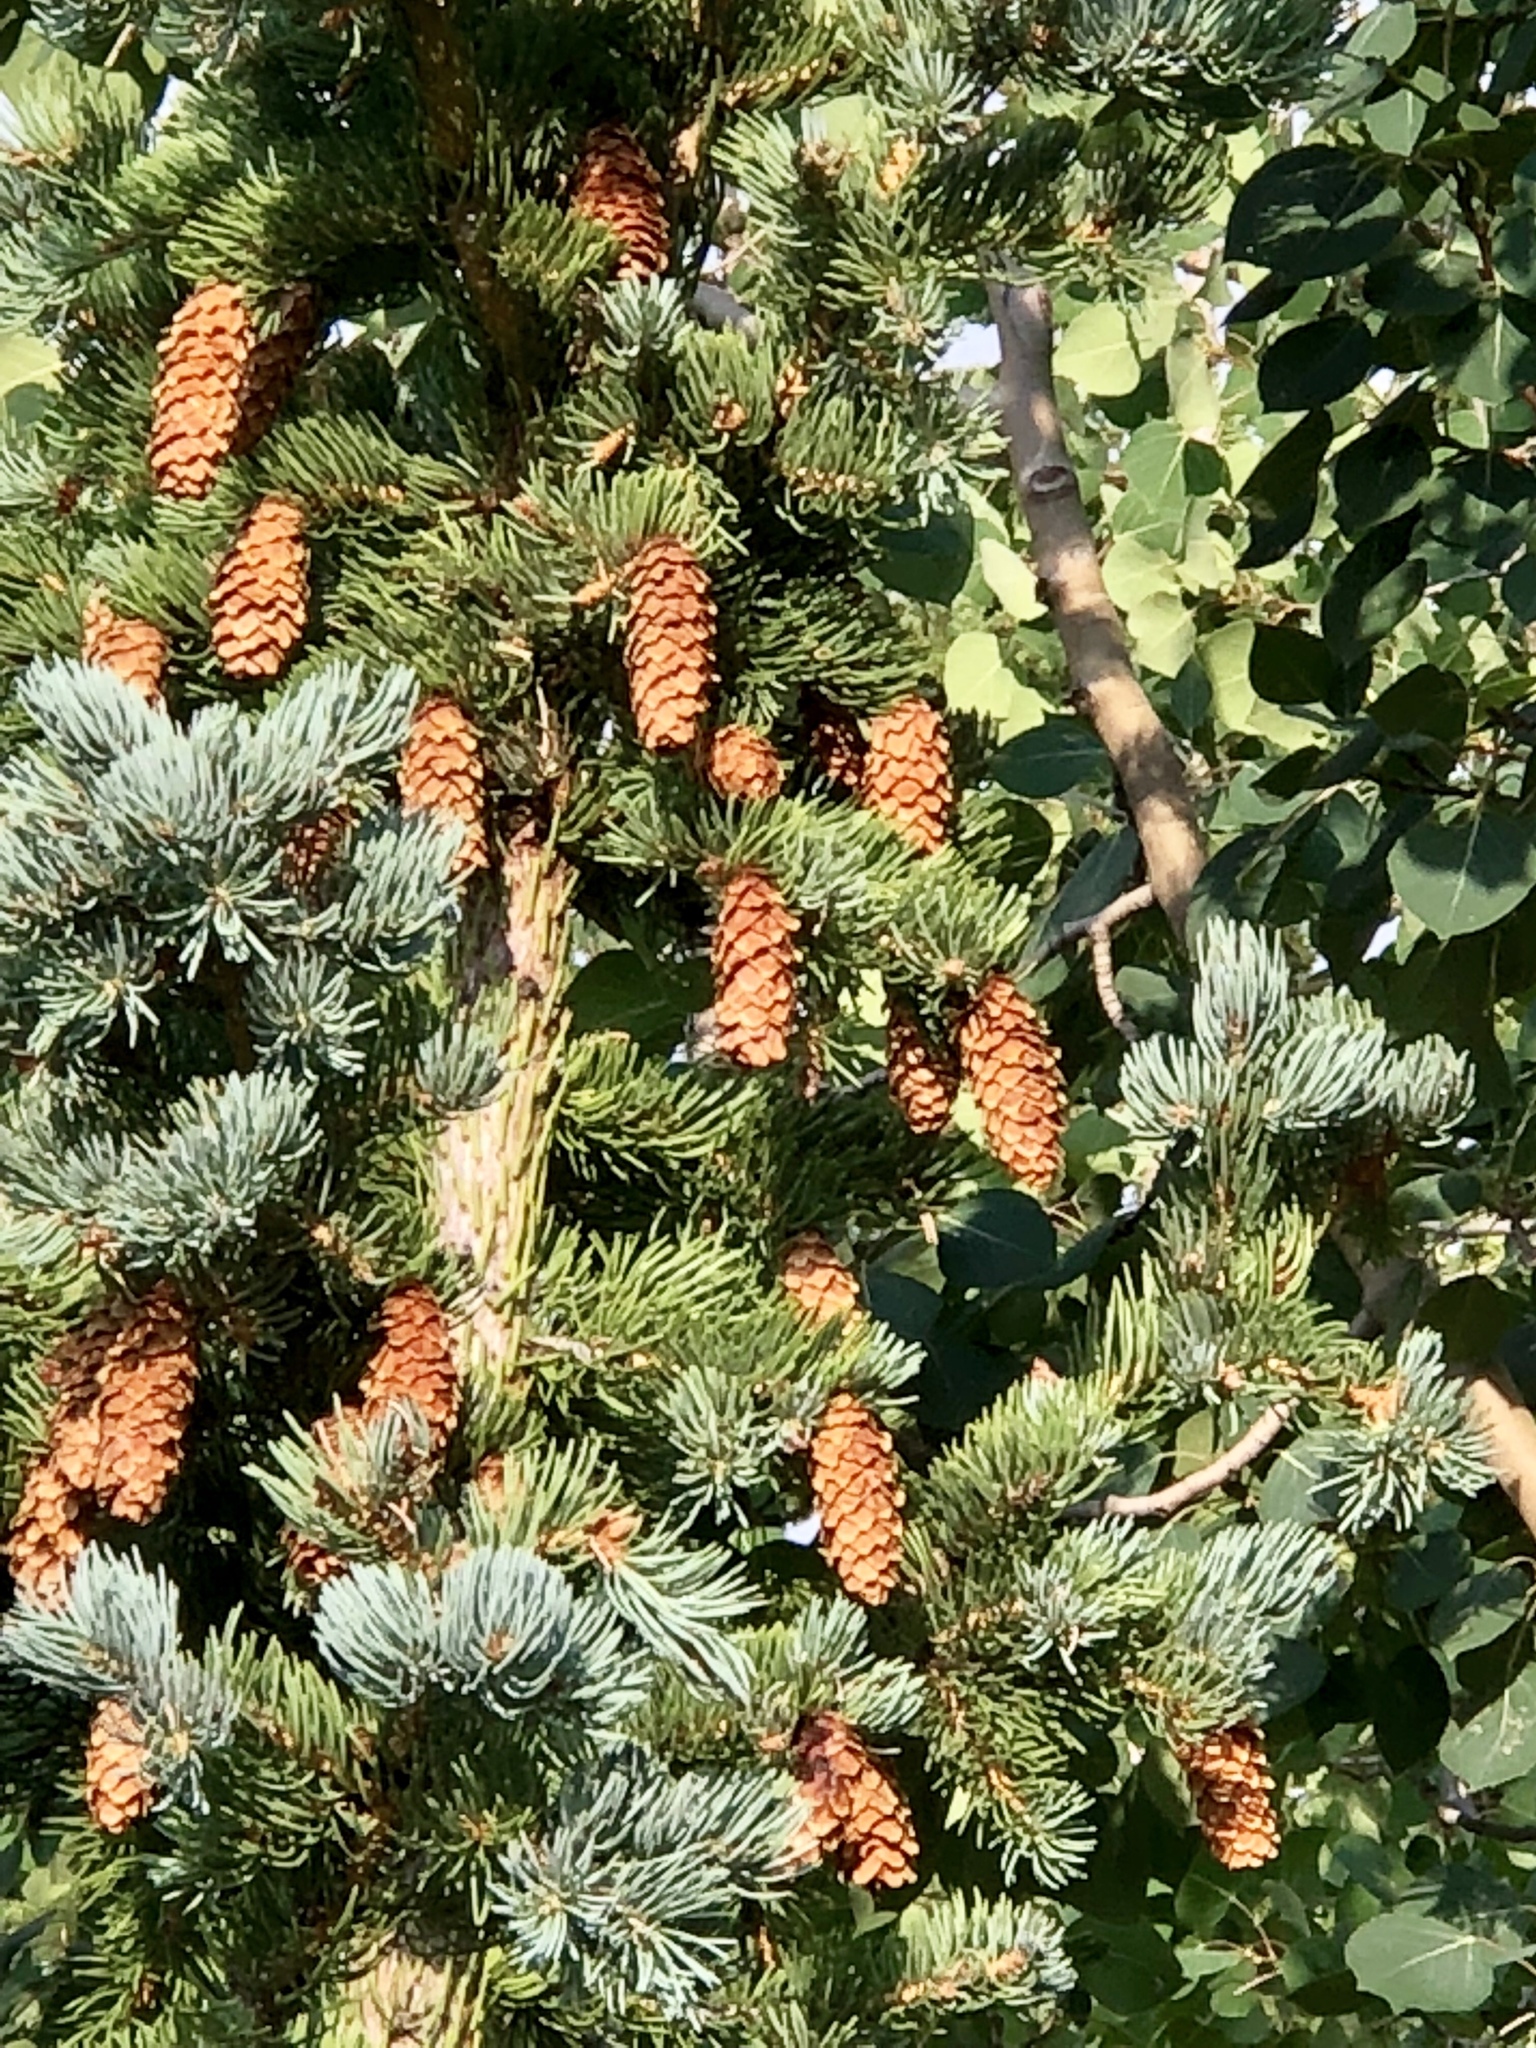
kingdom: Plantae
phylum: Tracheophyta
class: Pinopsida
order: Pinales
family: Pinaceae
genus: Picea
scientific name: Picea pungens
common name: Colorado spruce
